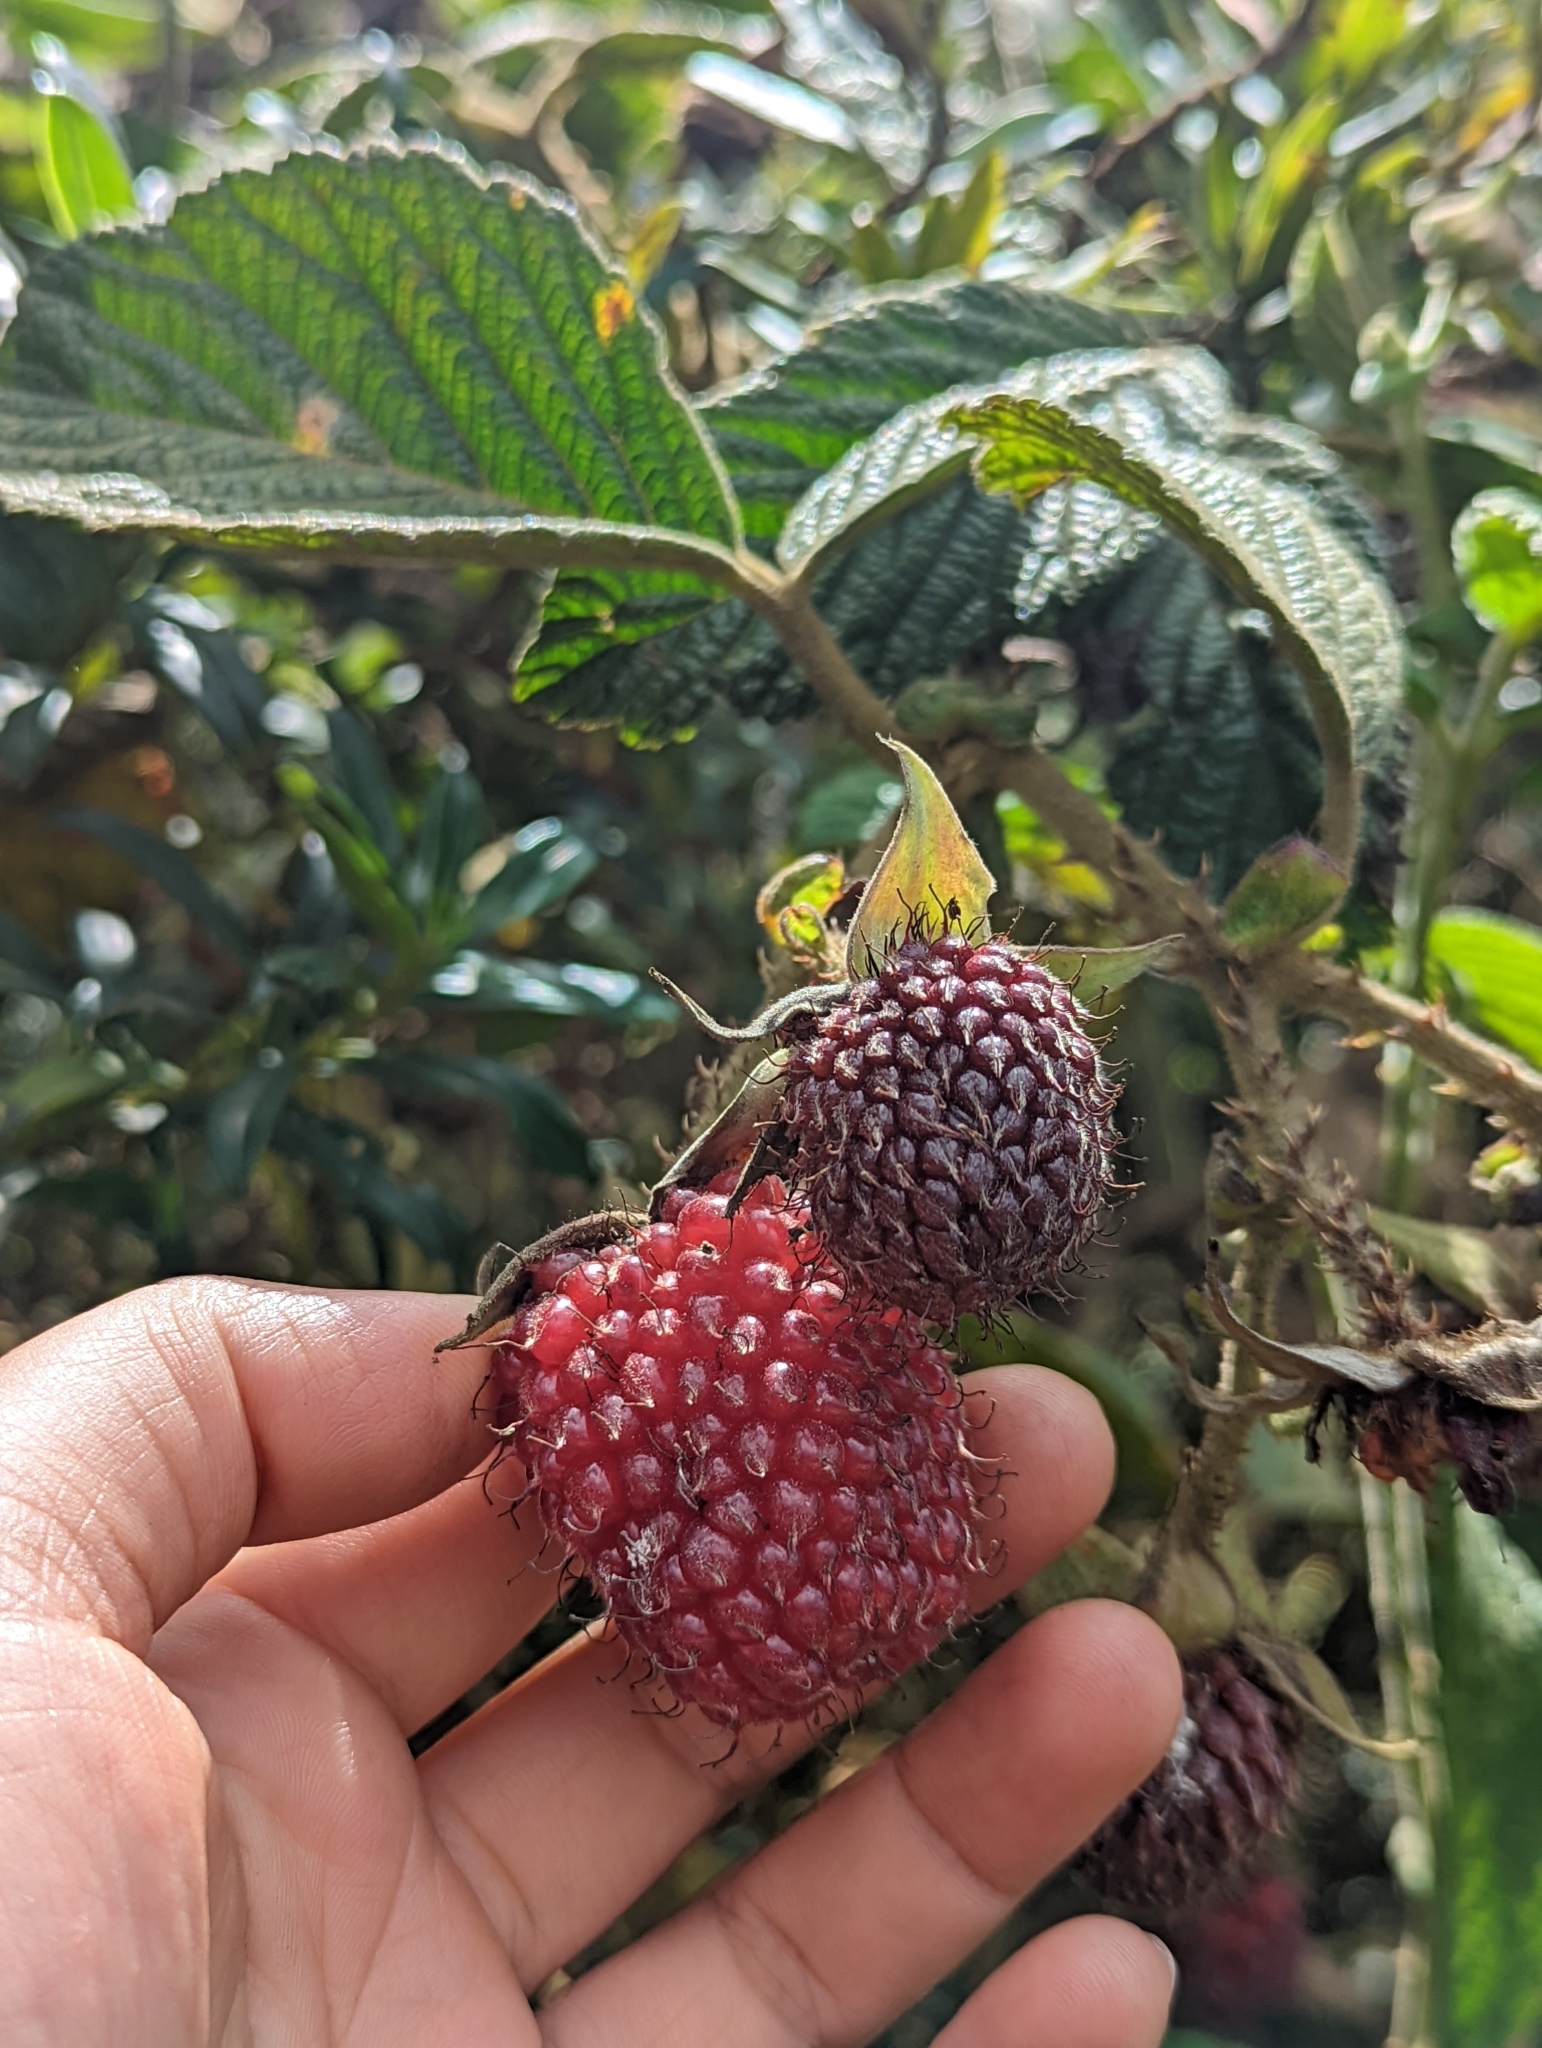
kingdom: Plantae
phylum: Tracheophyta
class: Magnoliopsida
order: Rosales
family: Rosaceae
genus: Rubus
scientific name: Rubus nubigenus
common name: Giant colombian blackberry
